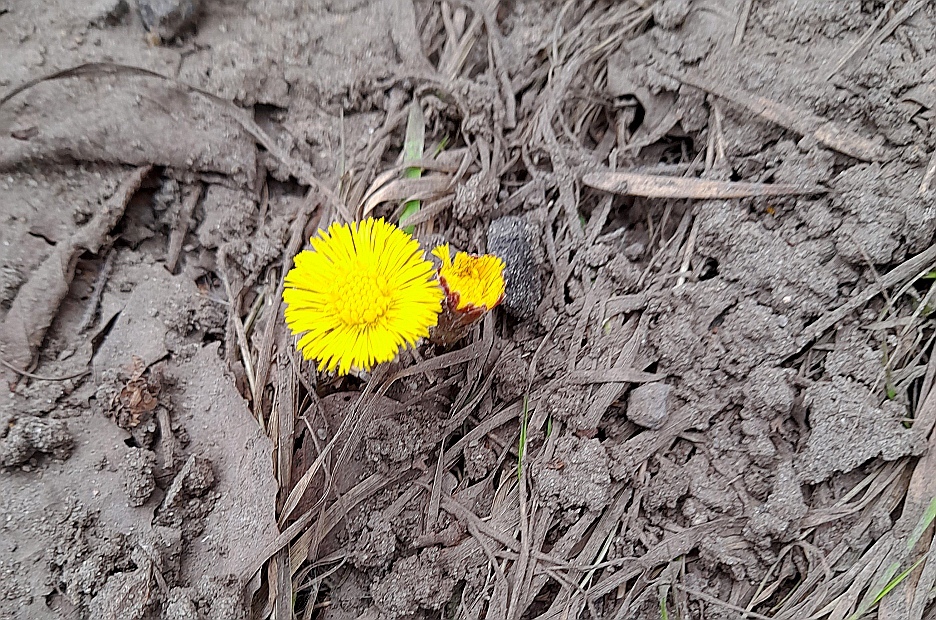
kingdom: Plantae
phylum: Tracheophyta
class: Magnoliopsida
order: Asterales
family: Asteraceae
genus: Tussilago
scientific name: Tussilago farfara
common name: Coltsfoot
